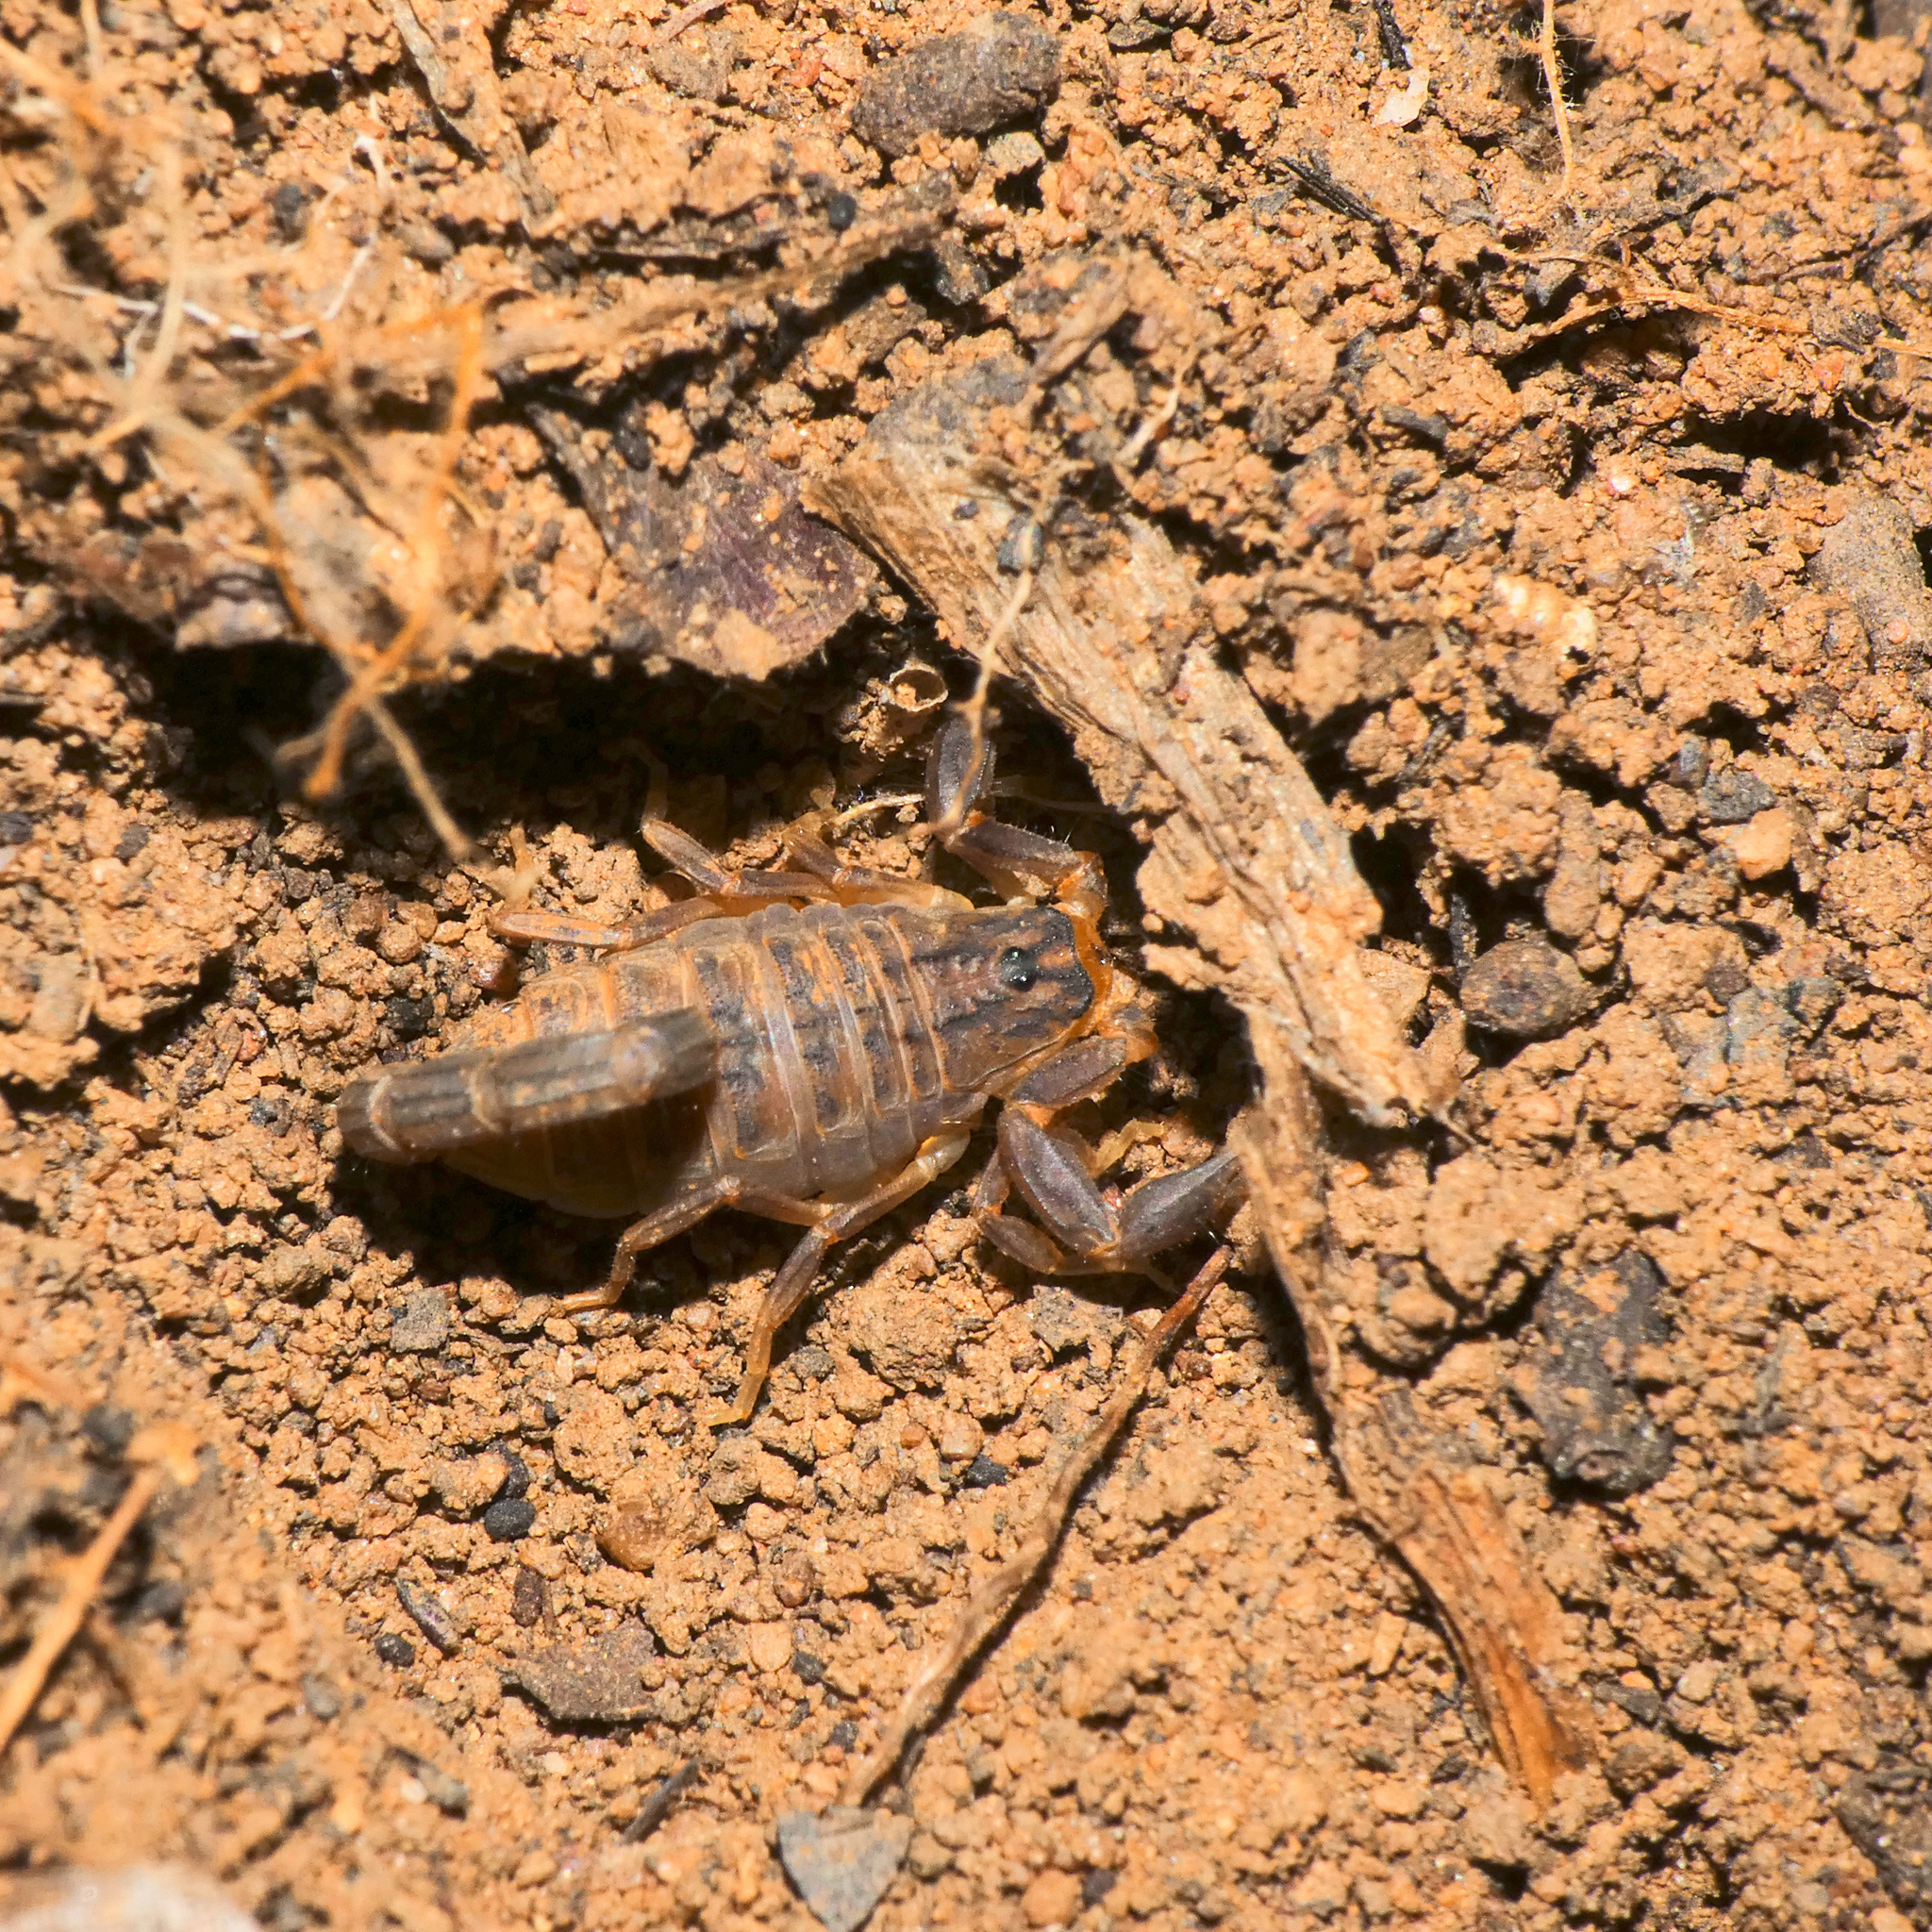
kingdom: Animalia
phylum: Arthropoda
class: Arachnida
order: Scorpiones
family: Buthidae
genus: Hottentotta
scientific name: Hottentotta trilineatus
